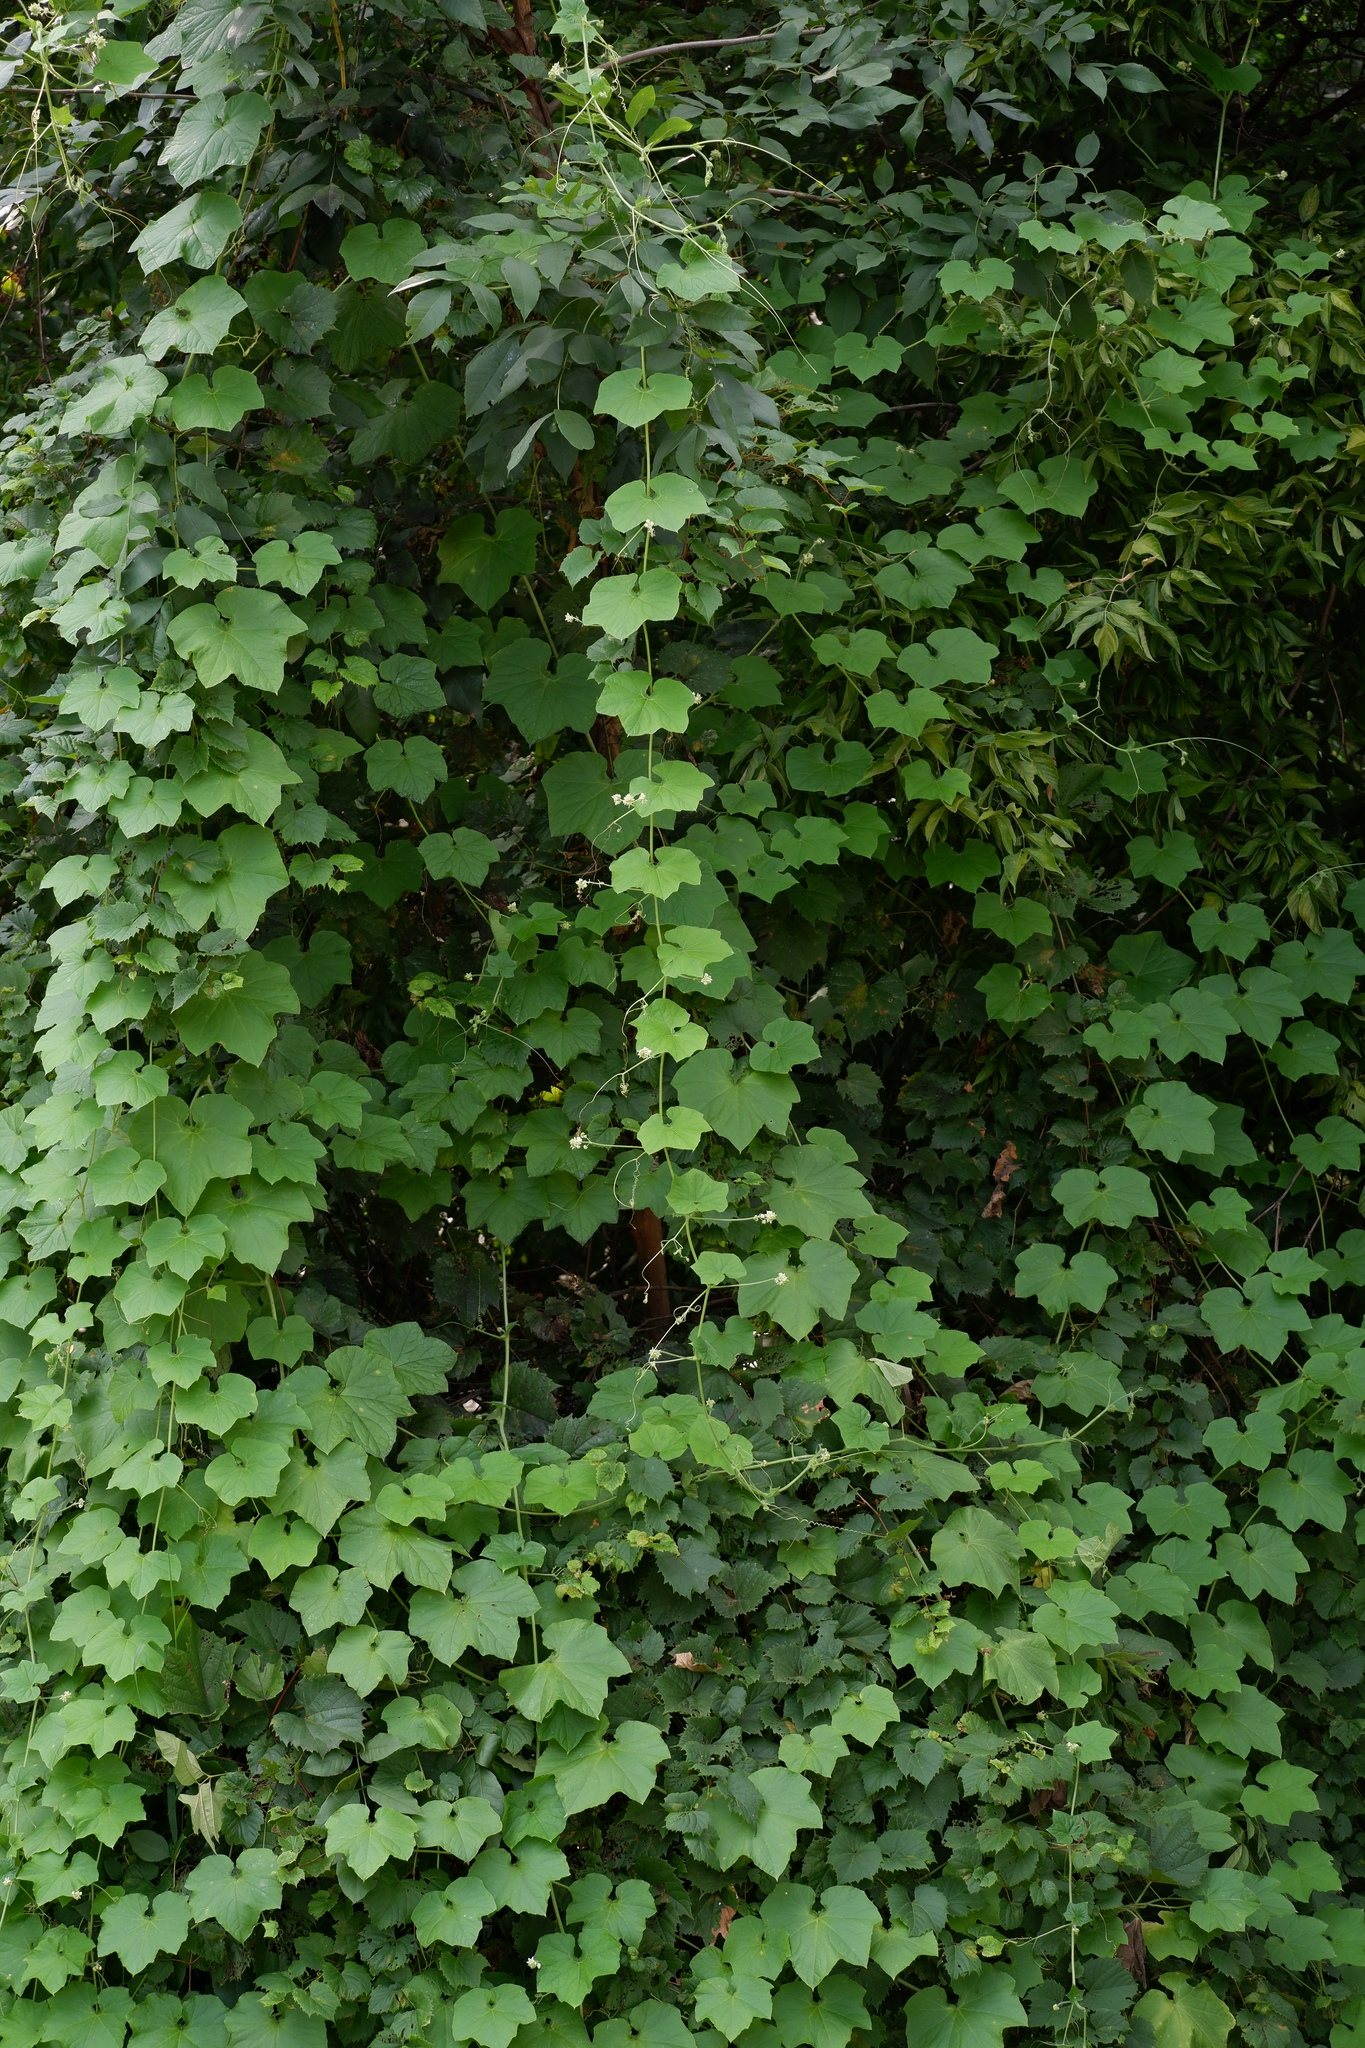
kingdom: Plantae
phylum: Tracheophyta
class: Magnoliopsida
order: Cucurbitales
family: Cucurbitaceae
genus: Sicyos
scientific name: Sicyos angulatus
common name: Angled burr cucumber
